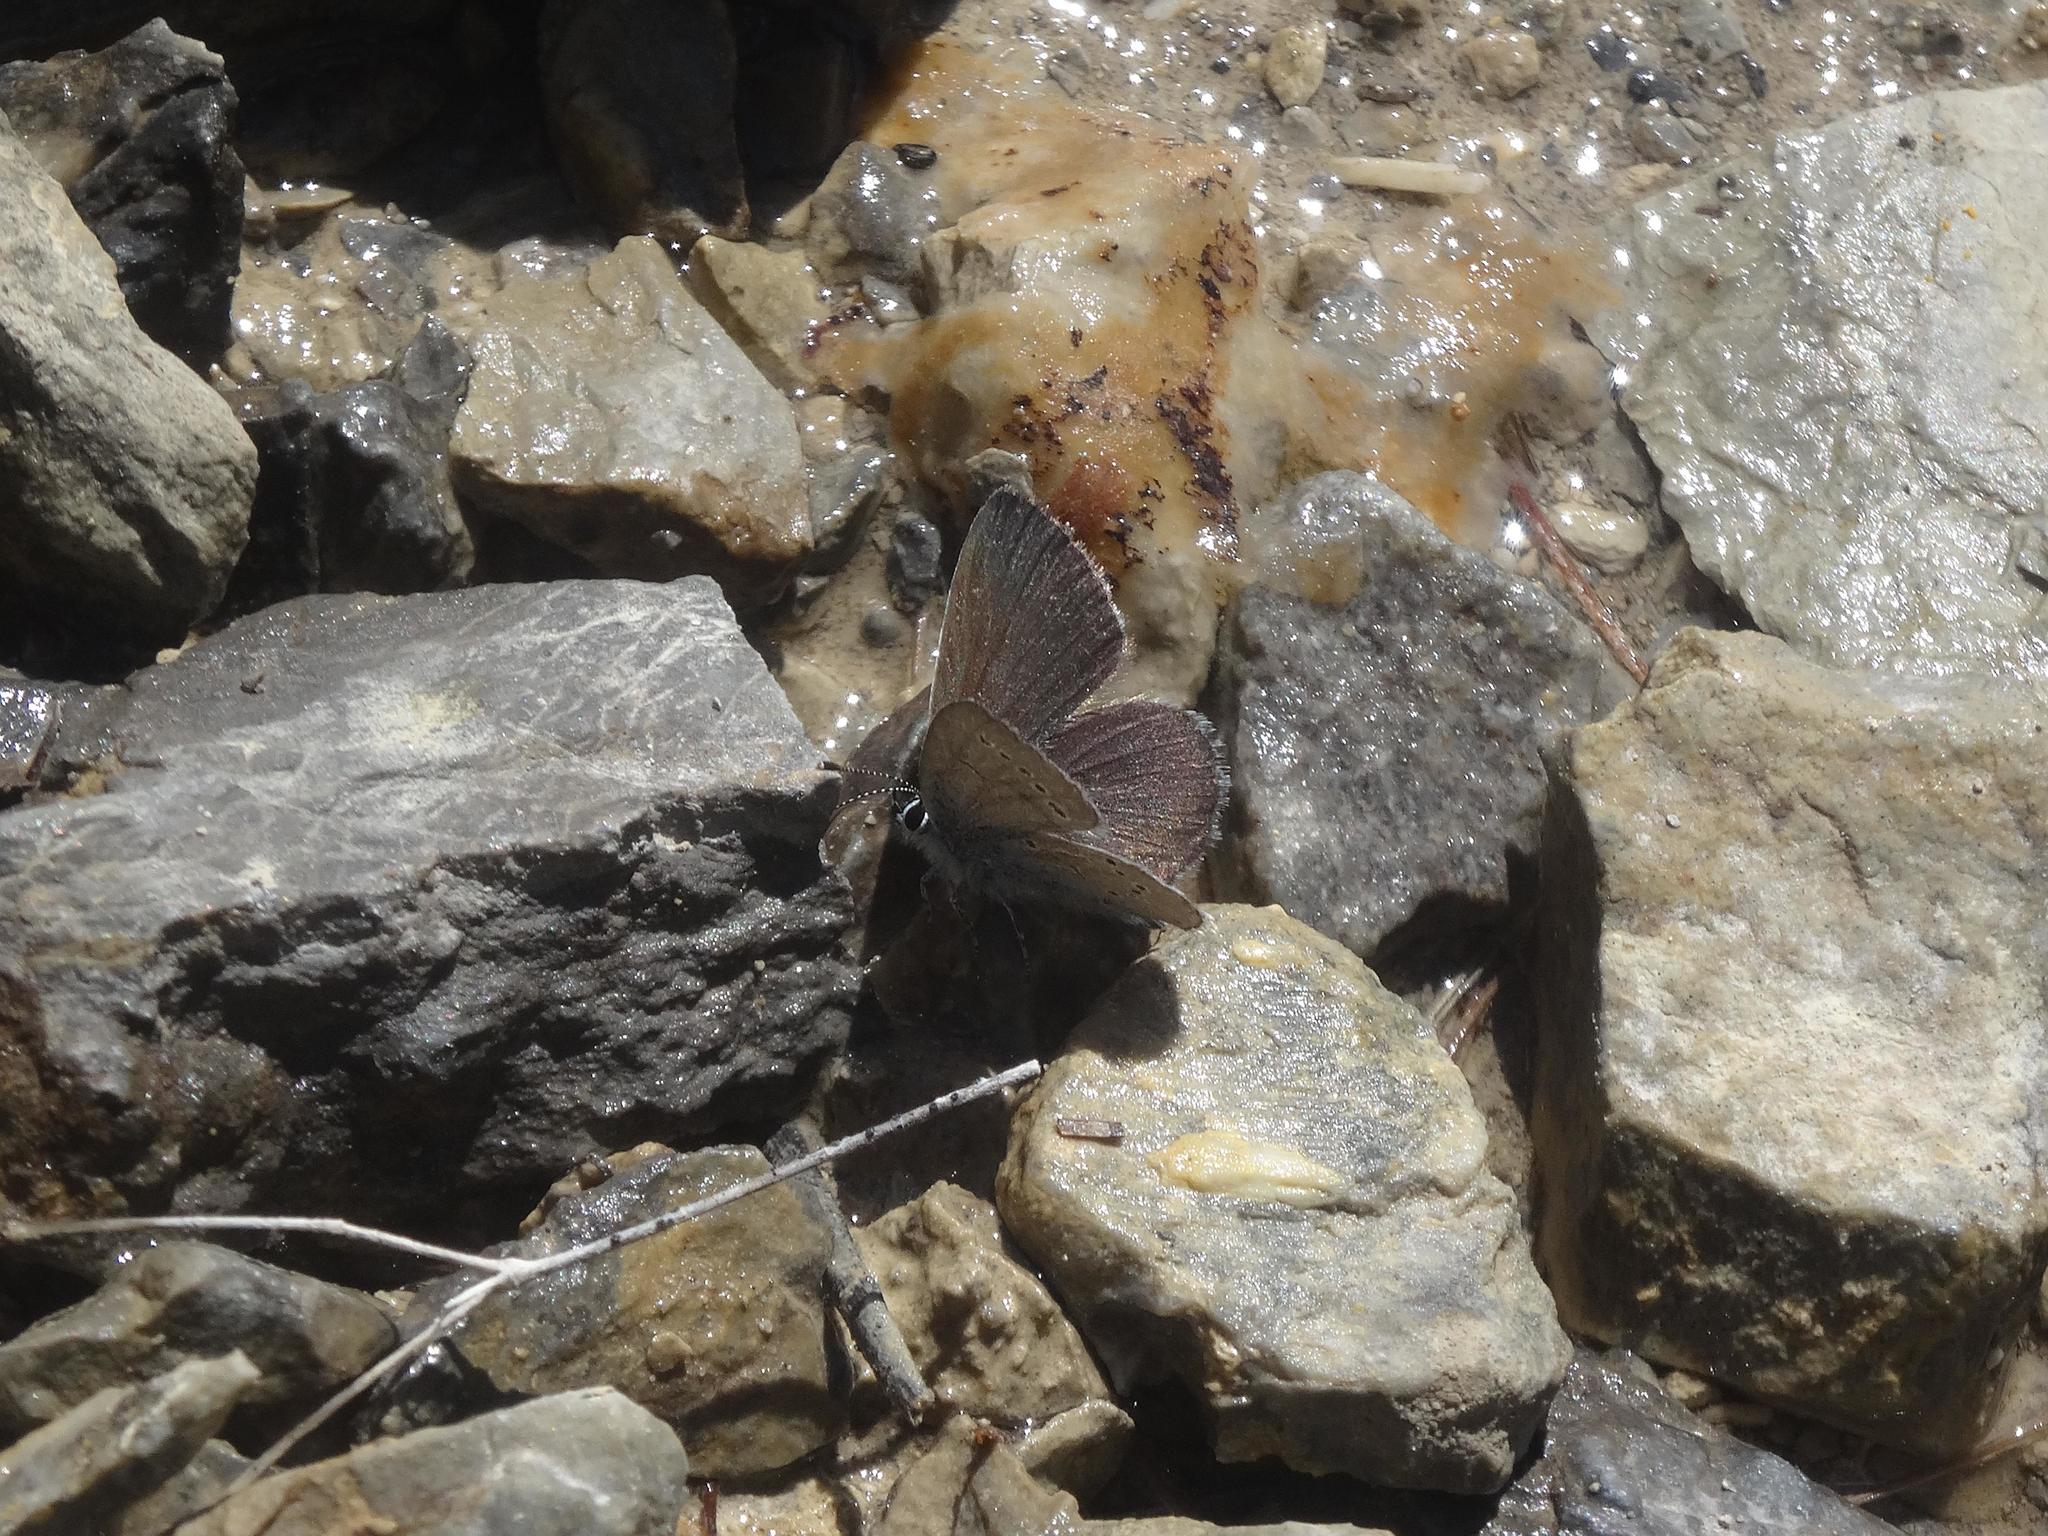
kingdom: Animalia
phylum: Arthropoda
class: Insecta
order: Lepidoptera
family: Lycaenidae
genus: Cupido
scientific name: Cupido minimus
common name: Small blue
